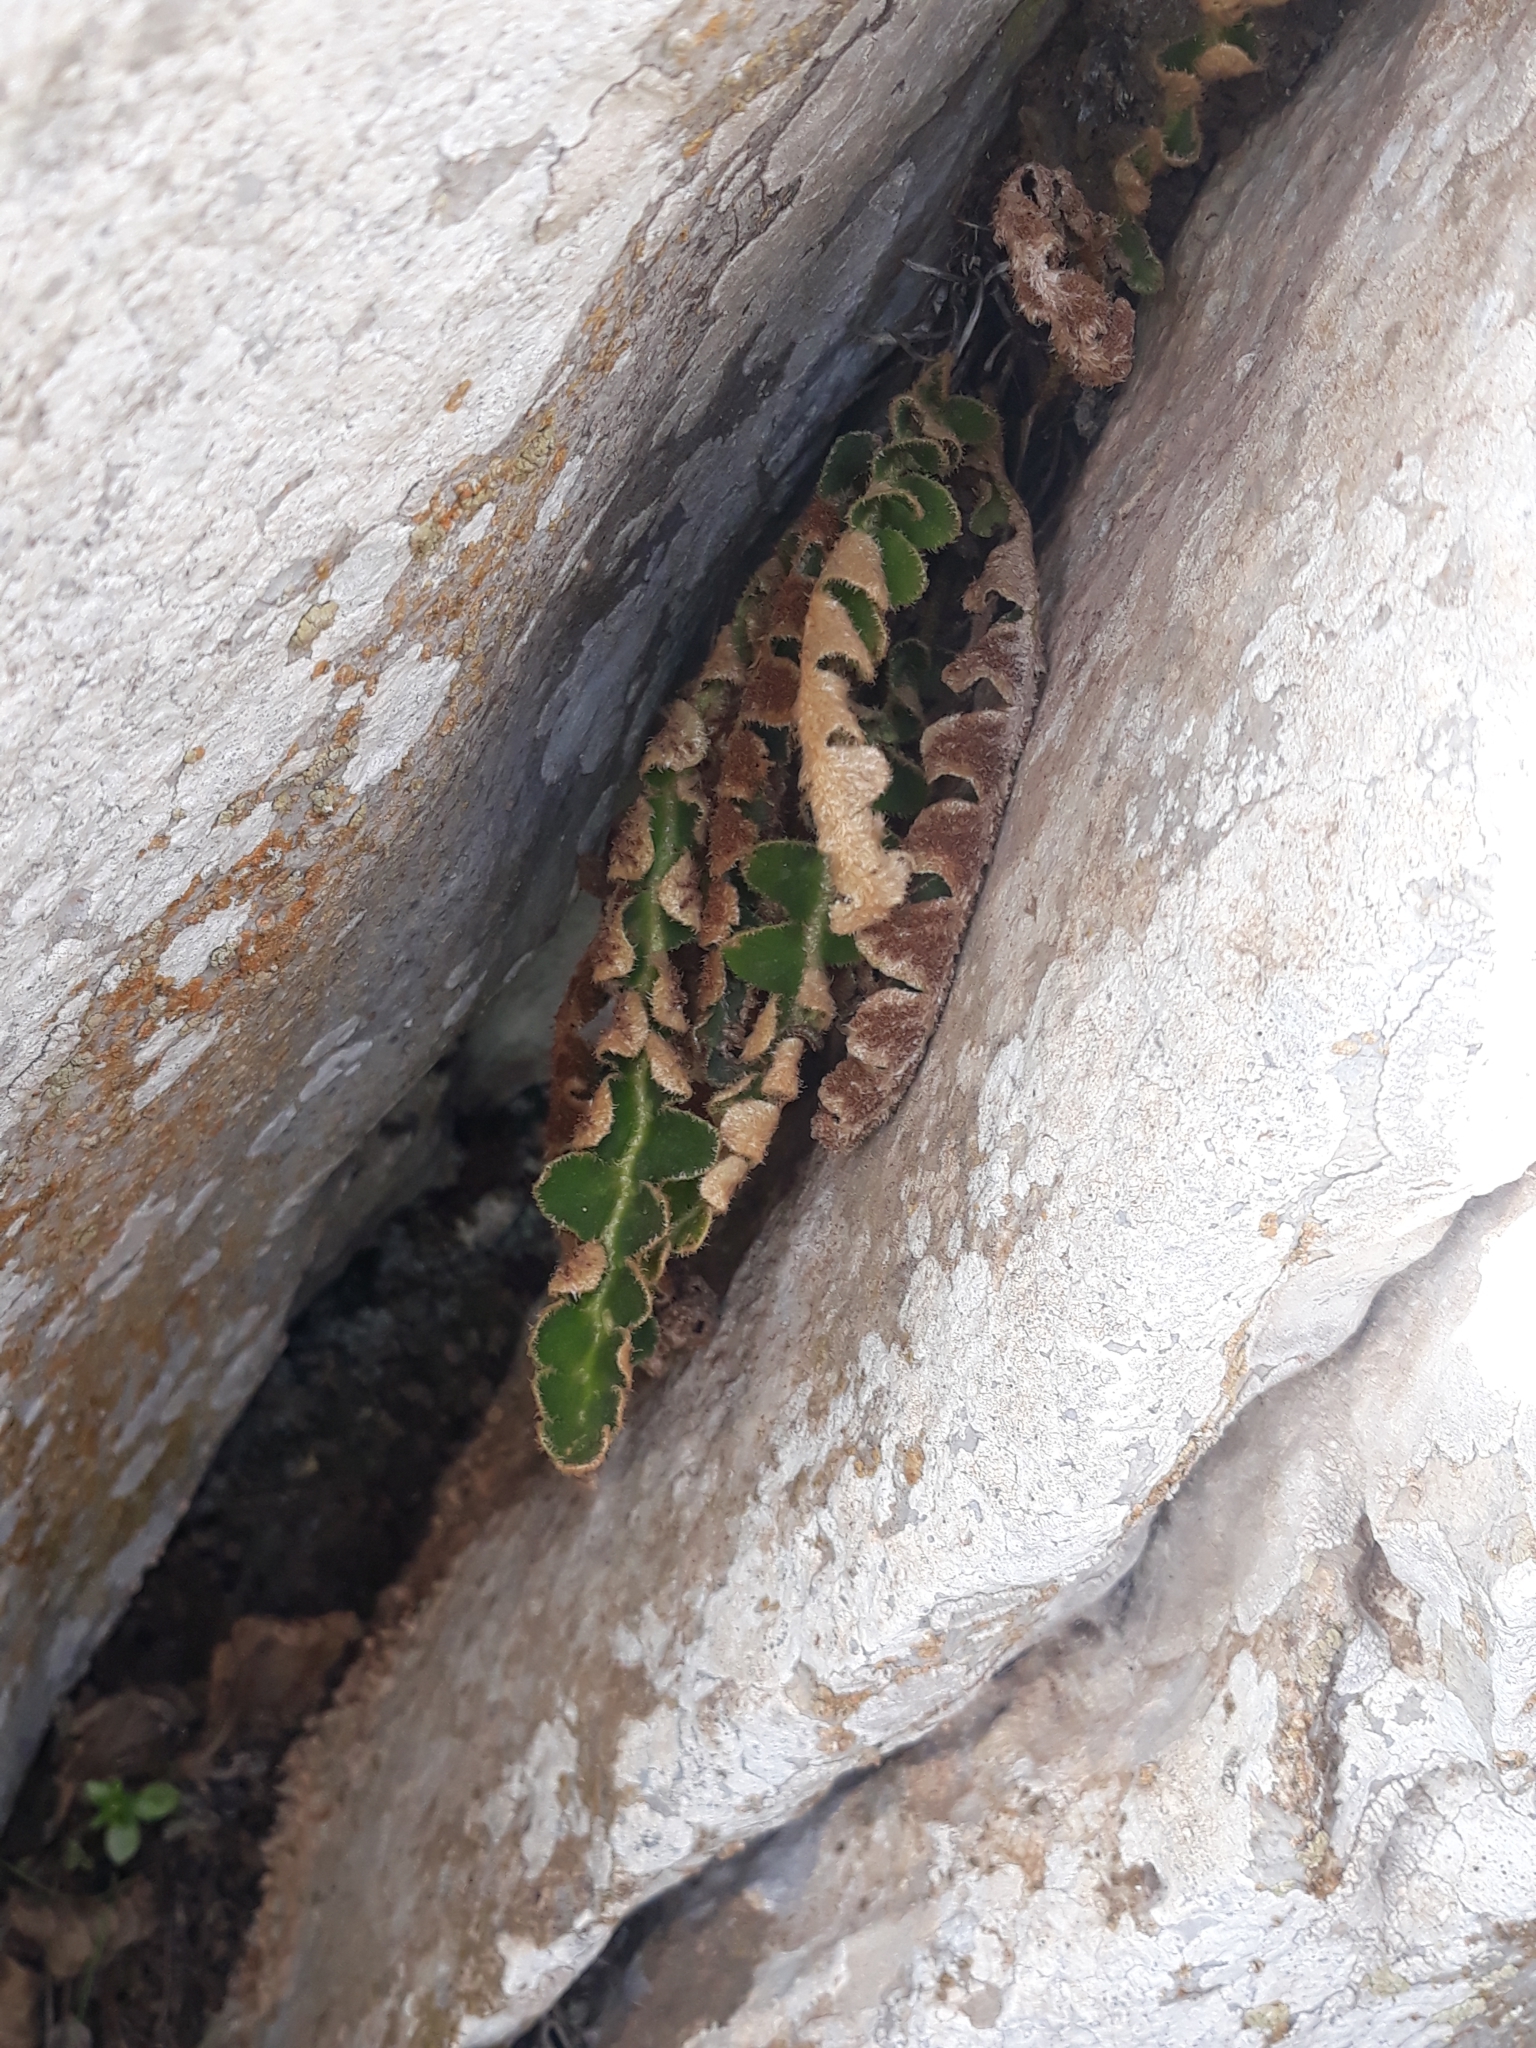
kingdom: Plantae
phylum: Tracheophyta
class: Polypodiopsida
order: Polypodiales
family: Aspleniaceae
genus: Asplenium
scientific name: Asplenium ceterach
